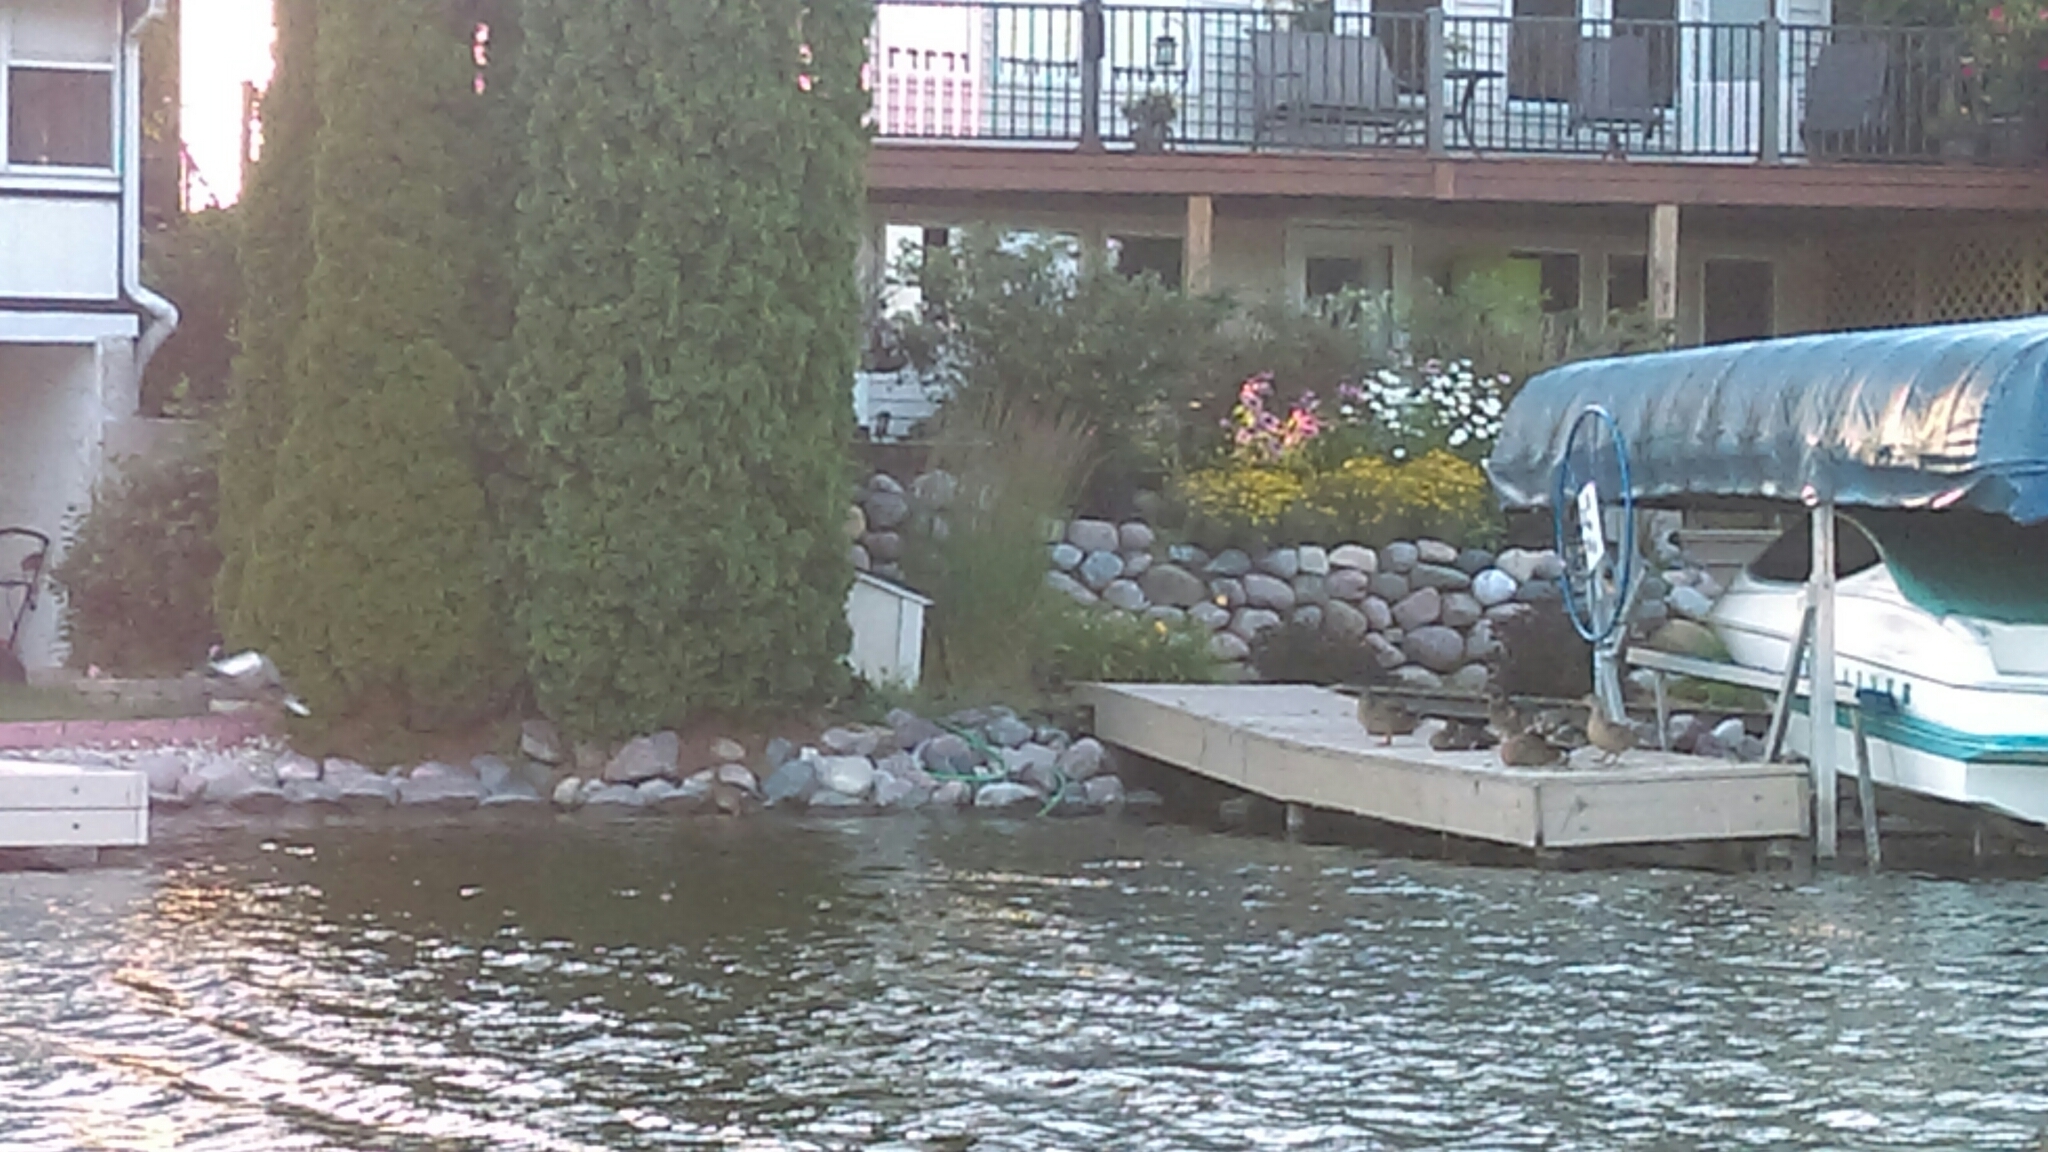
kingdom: Animalia
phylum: Chordata
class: Aves
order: Anseriformes
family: Anatidae
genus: Anas
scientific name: Anas platyrhynchos
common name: Mallard
